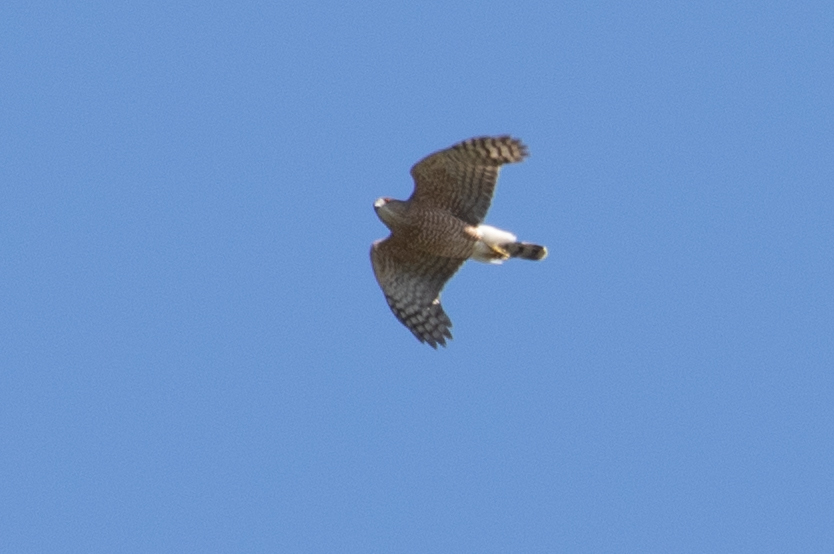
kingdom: Animalia
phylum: Chordata
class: Aves
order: Accipitriformes
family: Accipitridae
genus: Accipiter
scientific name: Accipiter cooperii
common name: Cooper's hawk
